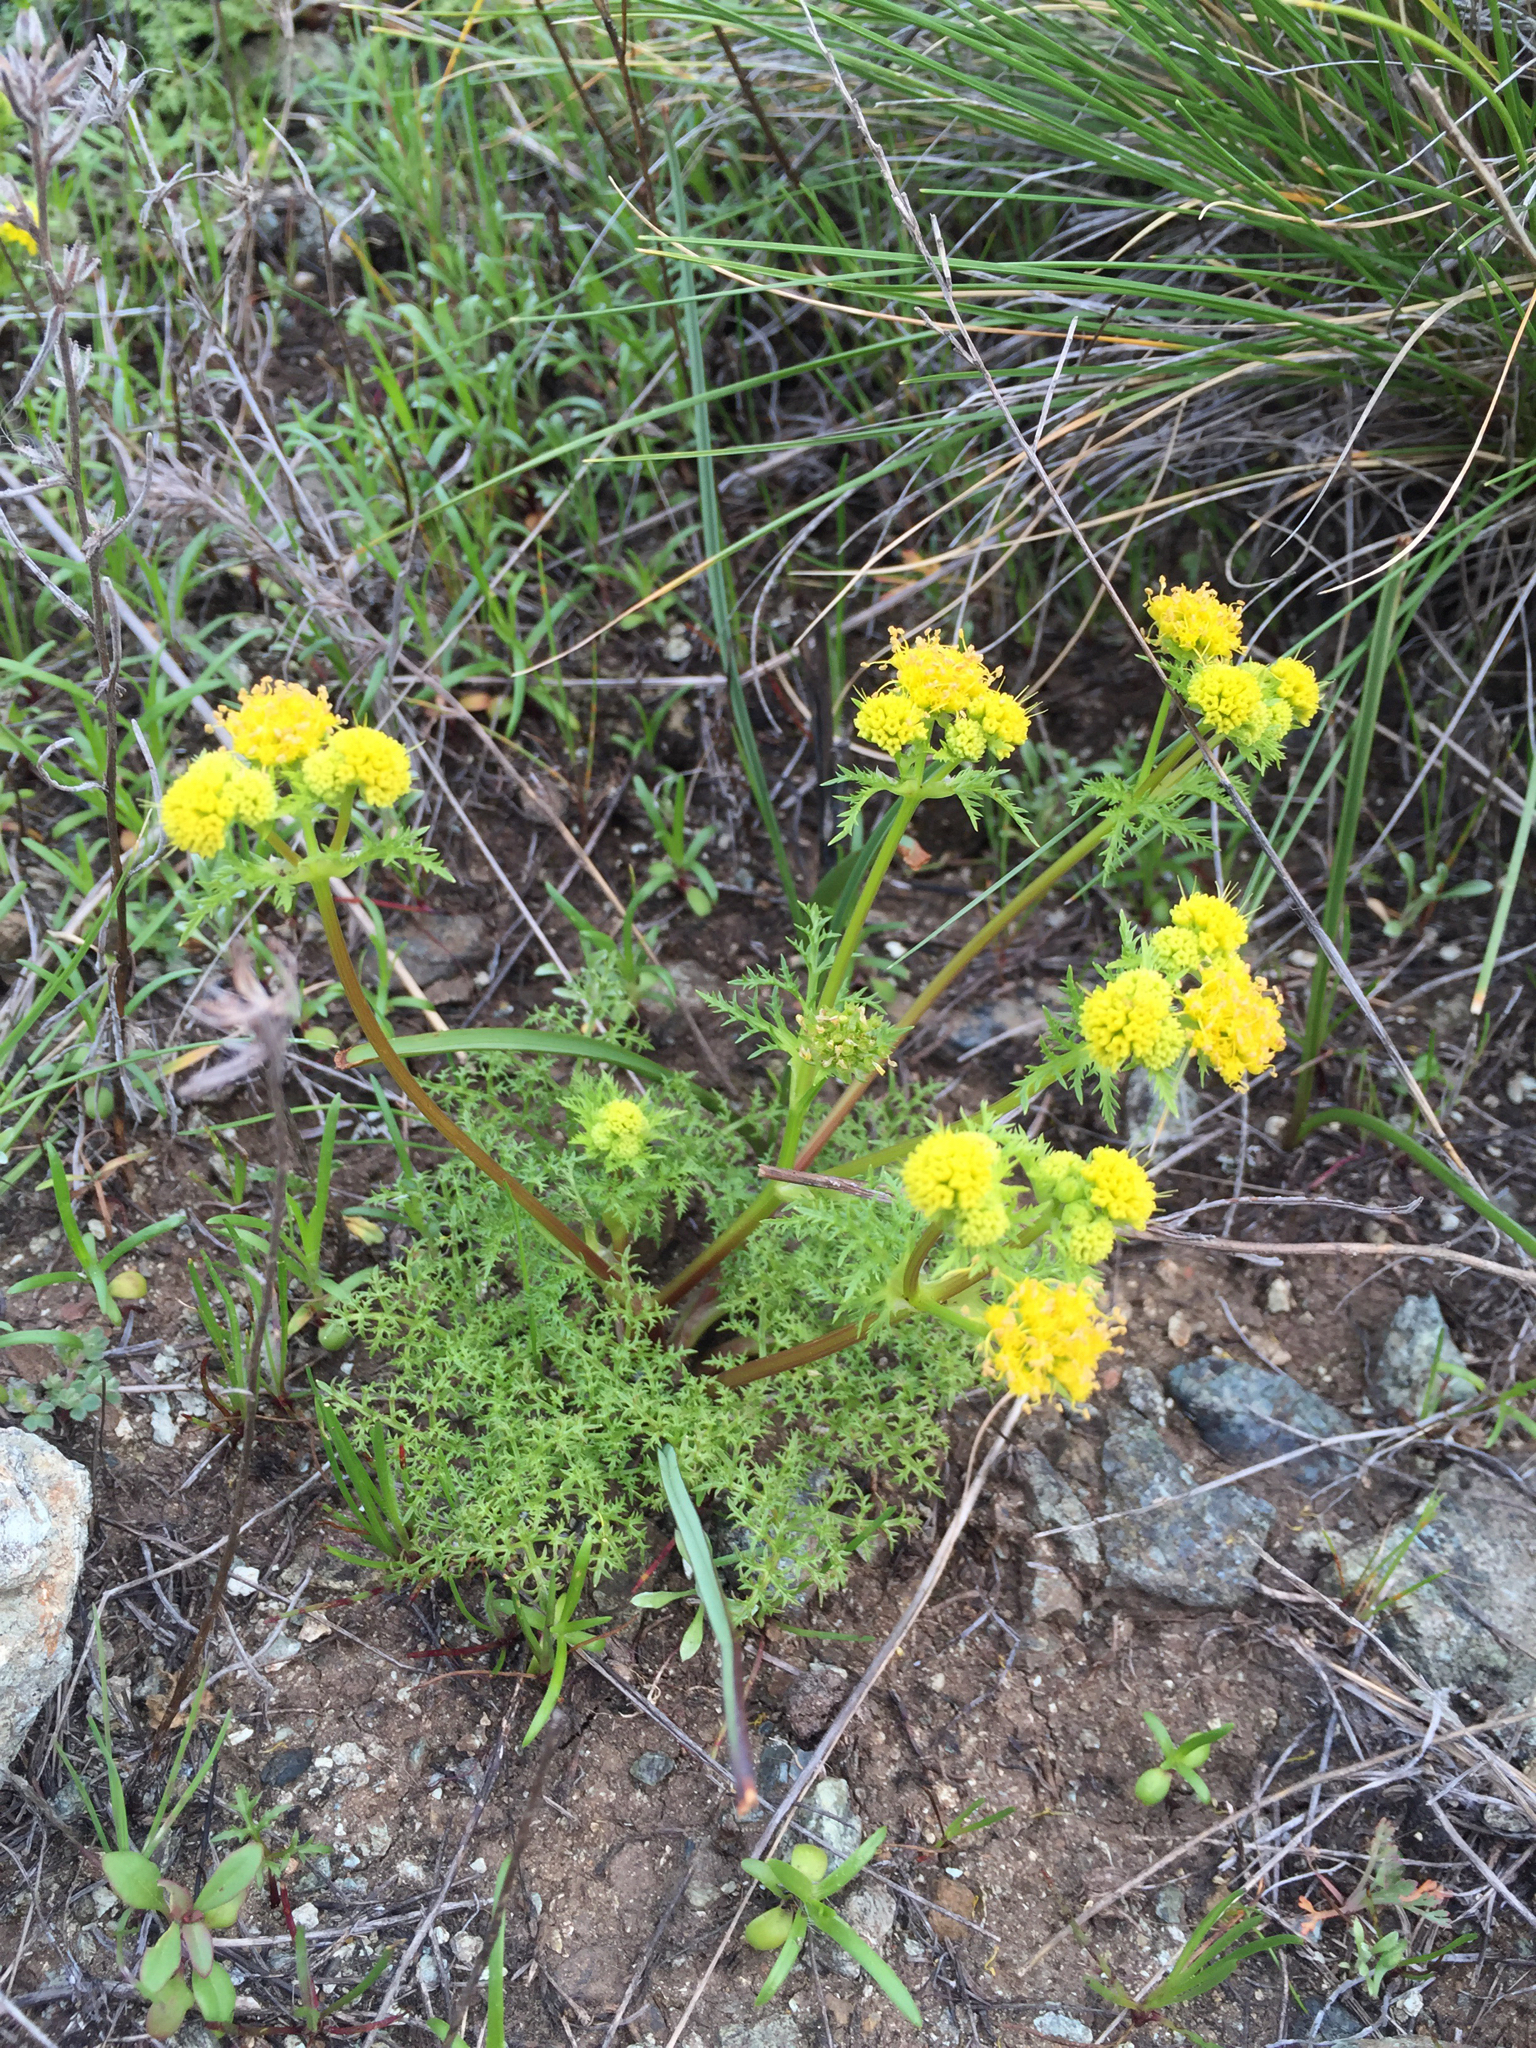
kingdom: Plantae
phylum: Tracheophyta
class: Magnoliopsida
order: Apiales
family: Apiaceae
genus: Sanicula
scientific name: Sanicula tuberosa
